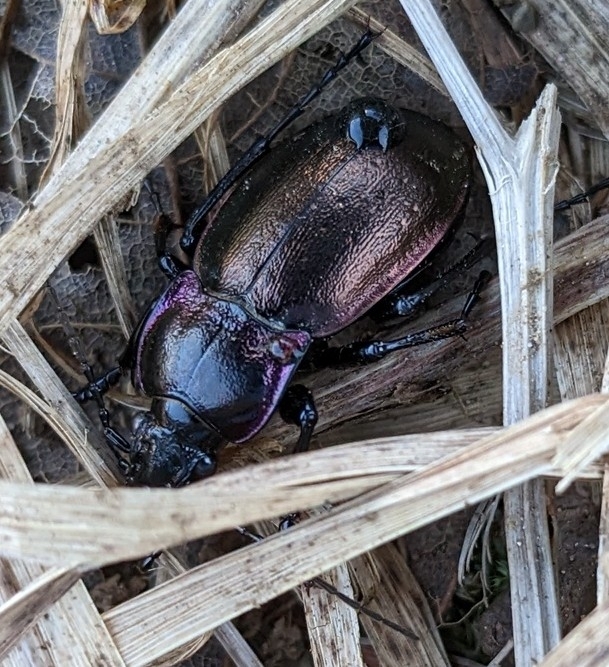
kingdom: Animalia
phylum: Arthropoda
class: Insecta
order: Coleoptera
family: Carabidae
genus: Carabus
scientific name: Carabus nemoralis
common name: European ground beetle
